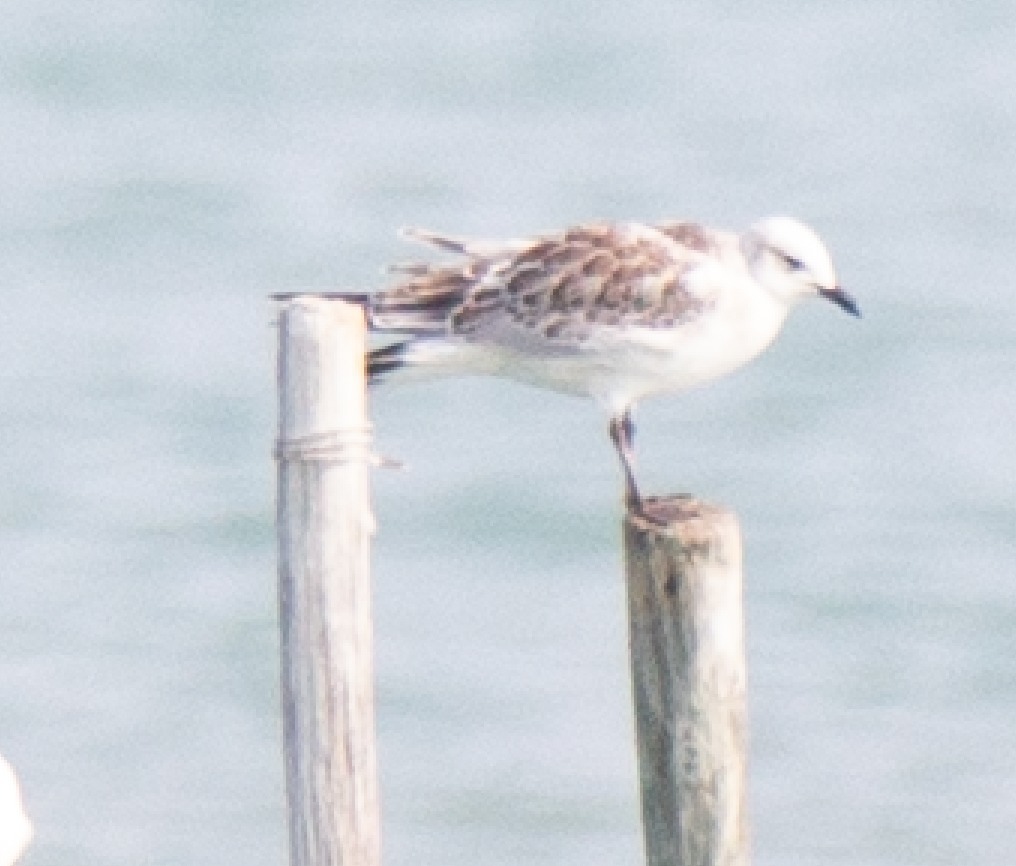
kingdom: Animalia
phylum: Chordata
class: Aves
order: Charadriiformes
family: Laridae
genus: Ichthyaetus
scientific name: Ichthyaetus melanocephalus
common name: Mediterranean gull
